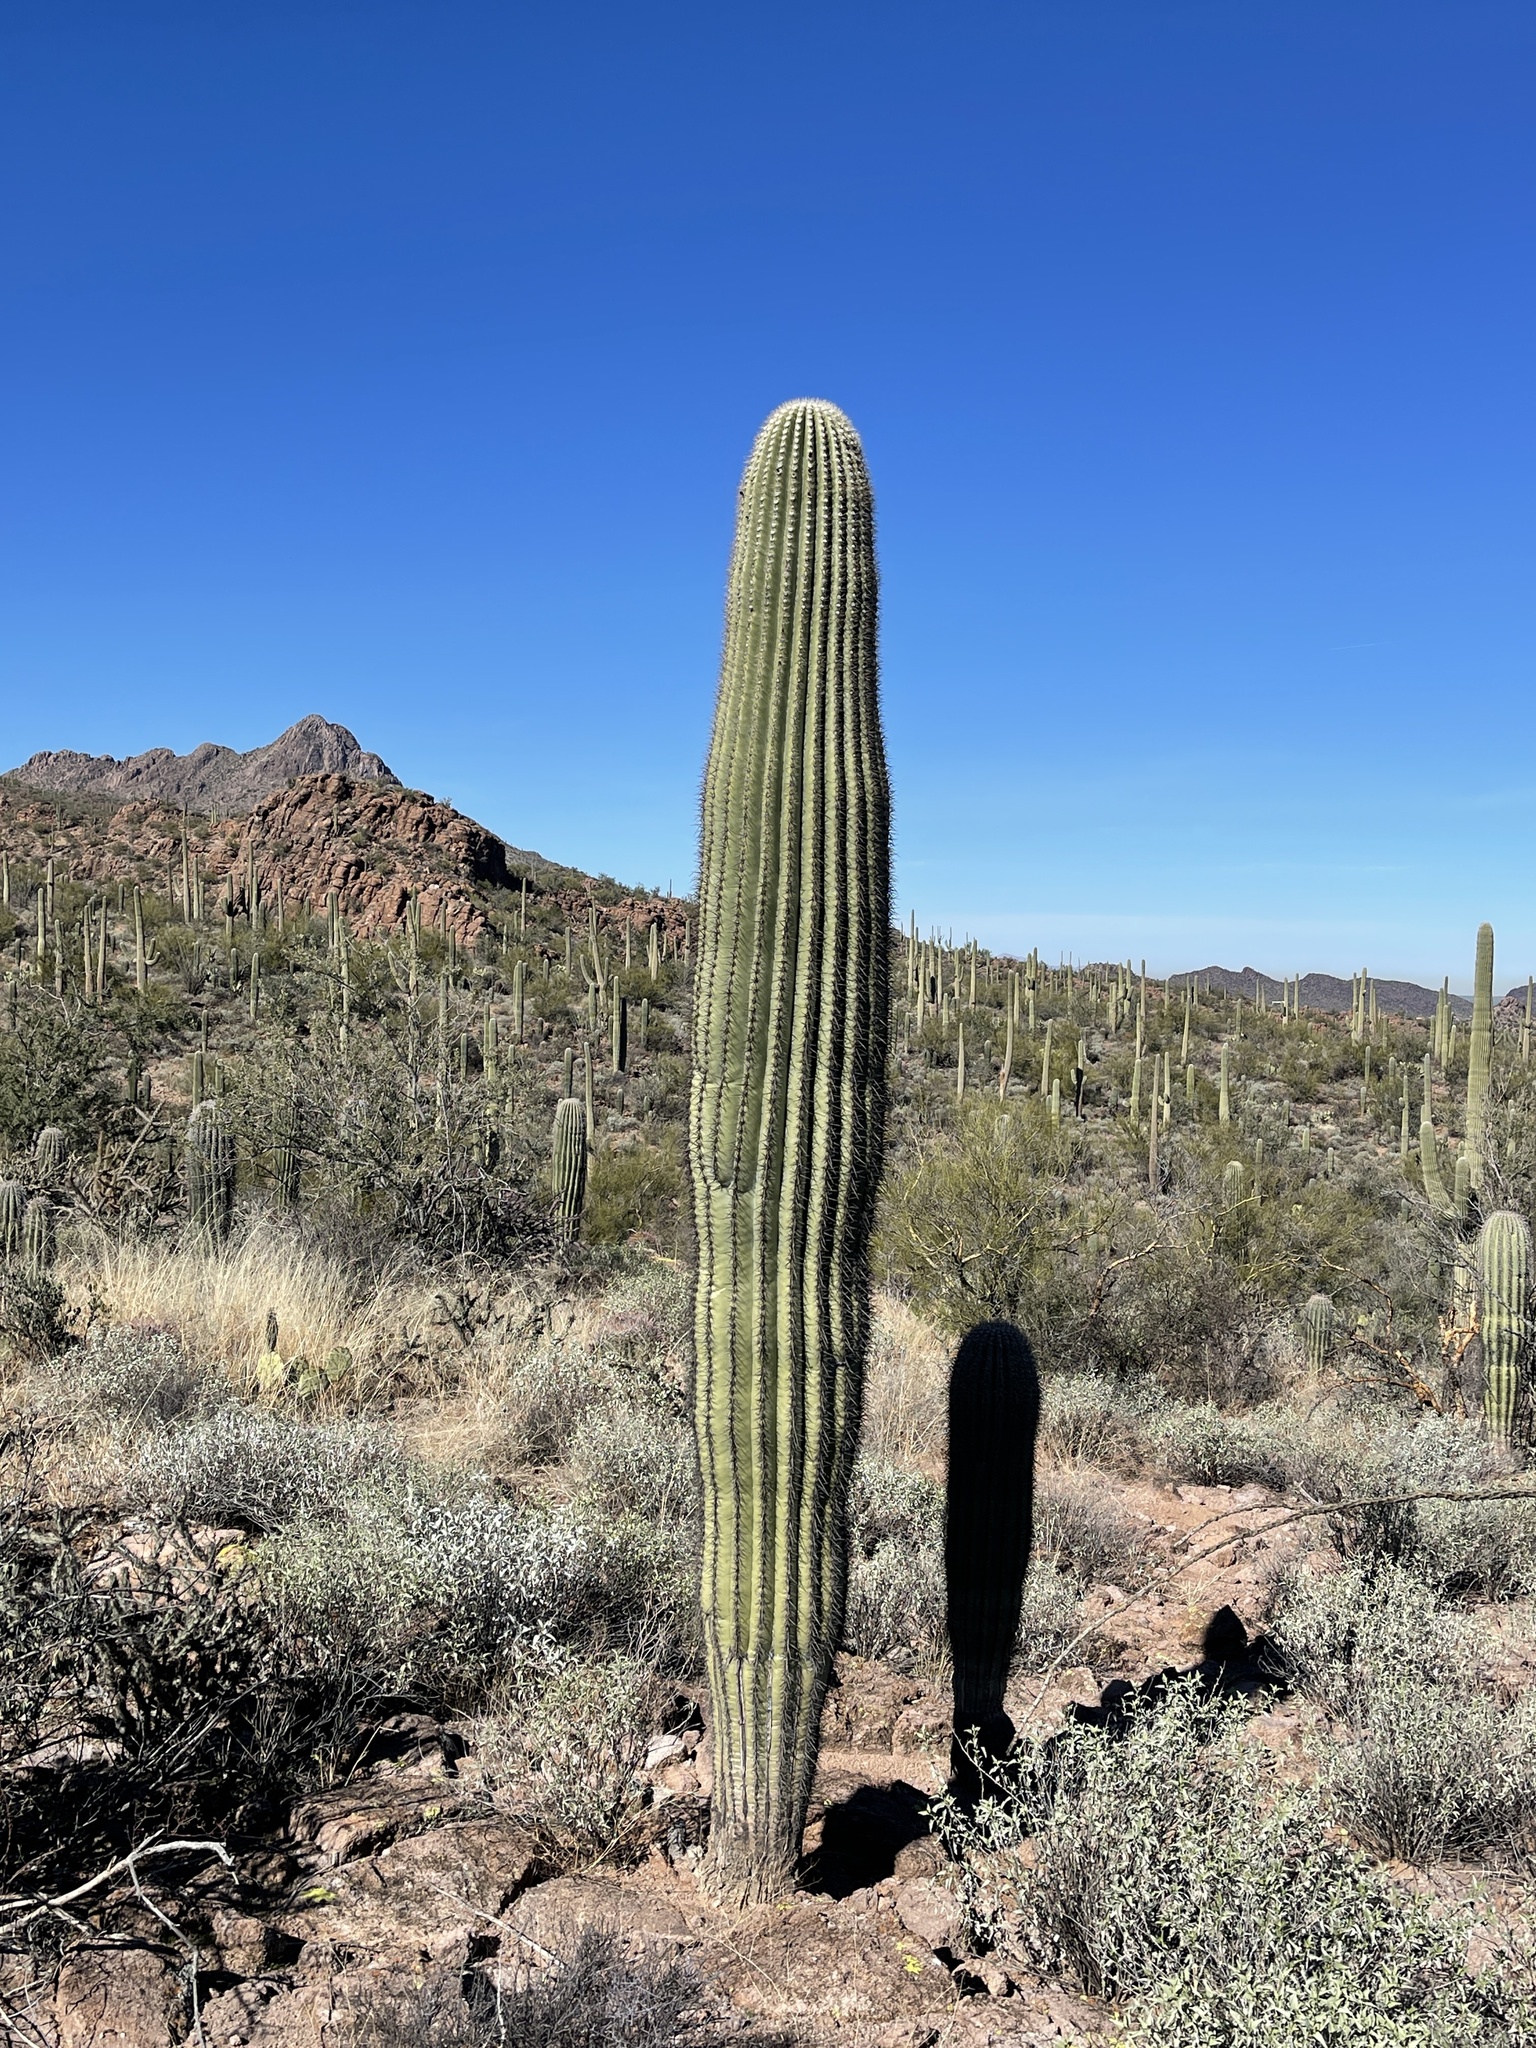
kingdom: Plantae
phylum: Tracheophyta
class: Magnoliopsida
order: Caryophyllales
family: Cactaceae
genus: Carnegiea
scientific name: Carnegiea gigantea
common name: Saguaro
